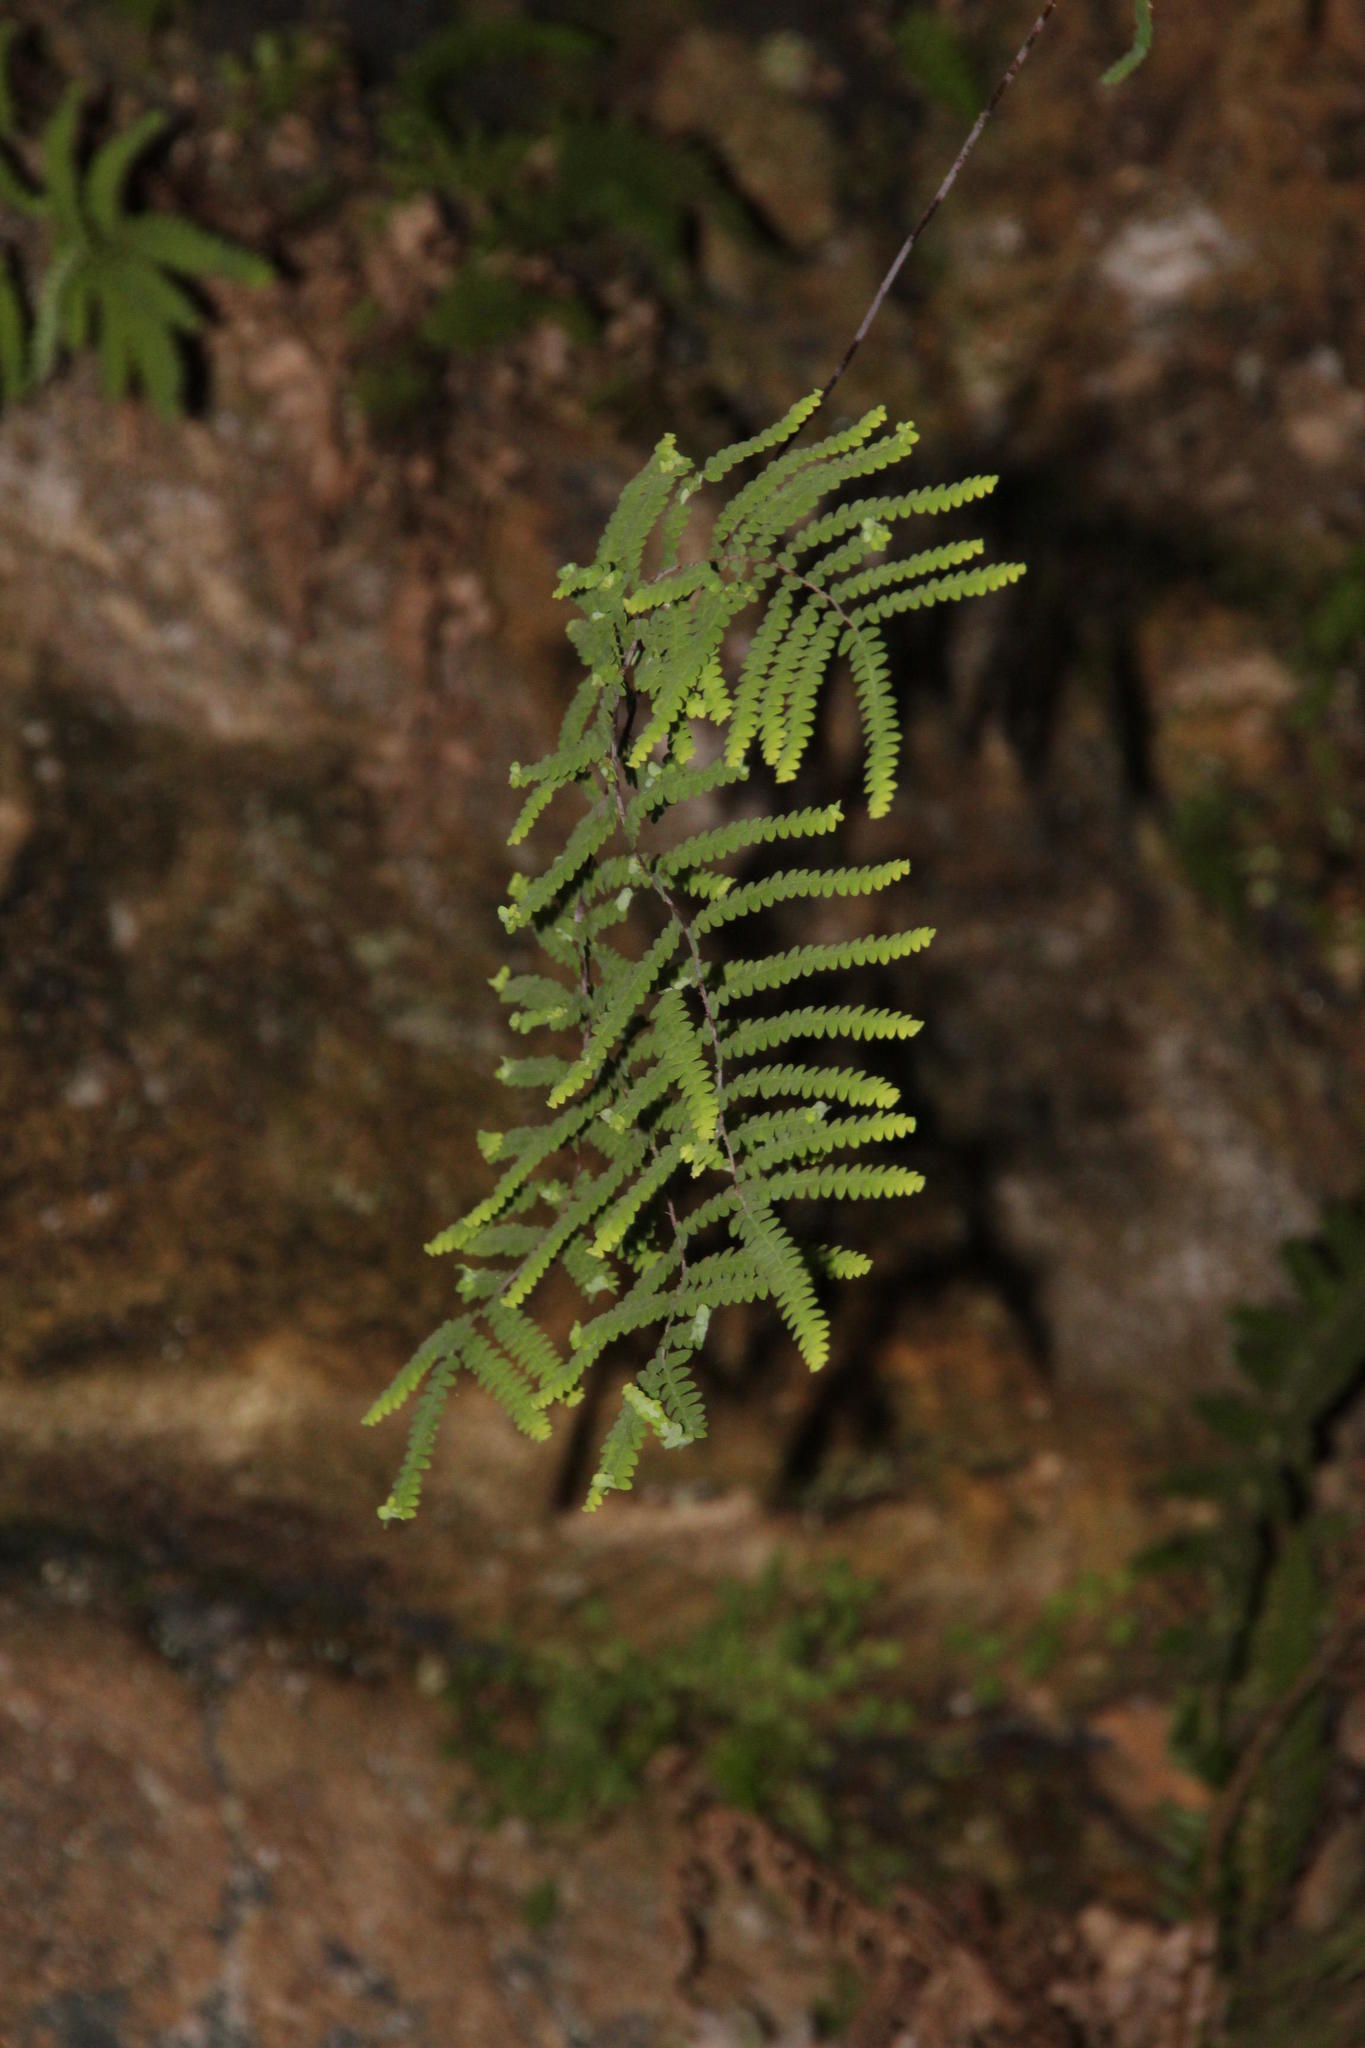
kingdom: Plantae
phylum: Tracheophyta
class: Polypodiopsida
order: Gleicheniales
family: Gleicheniaceae
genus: Gleichenia
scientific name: Gleichenia polypodioides
